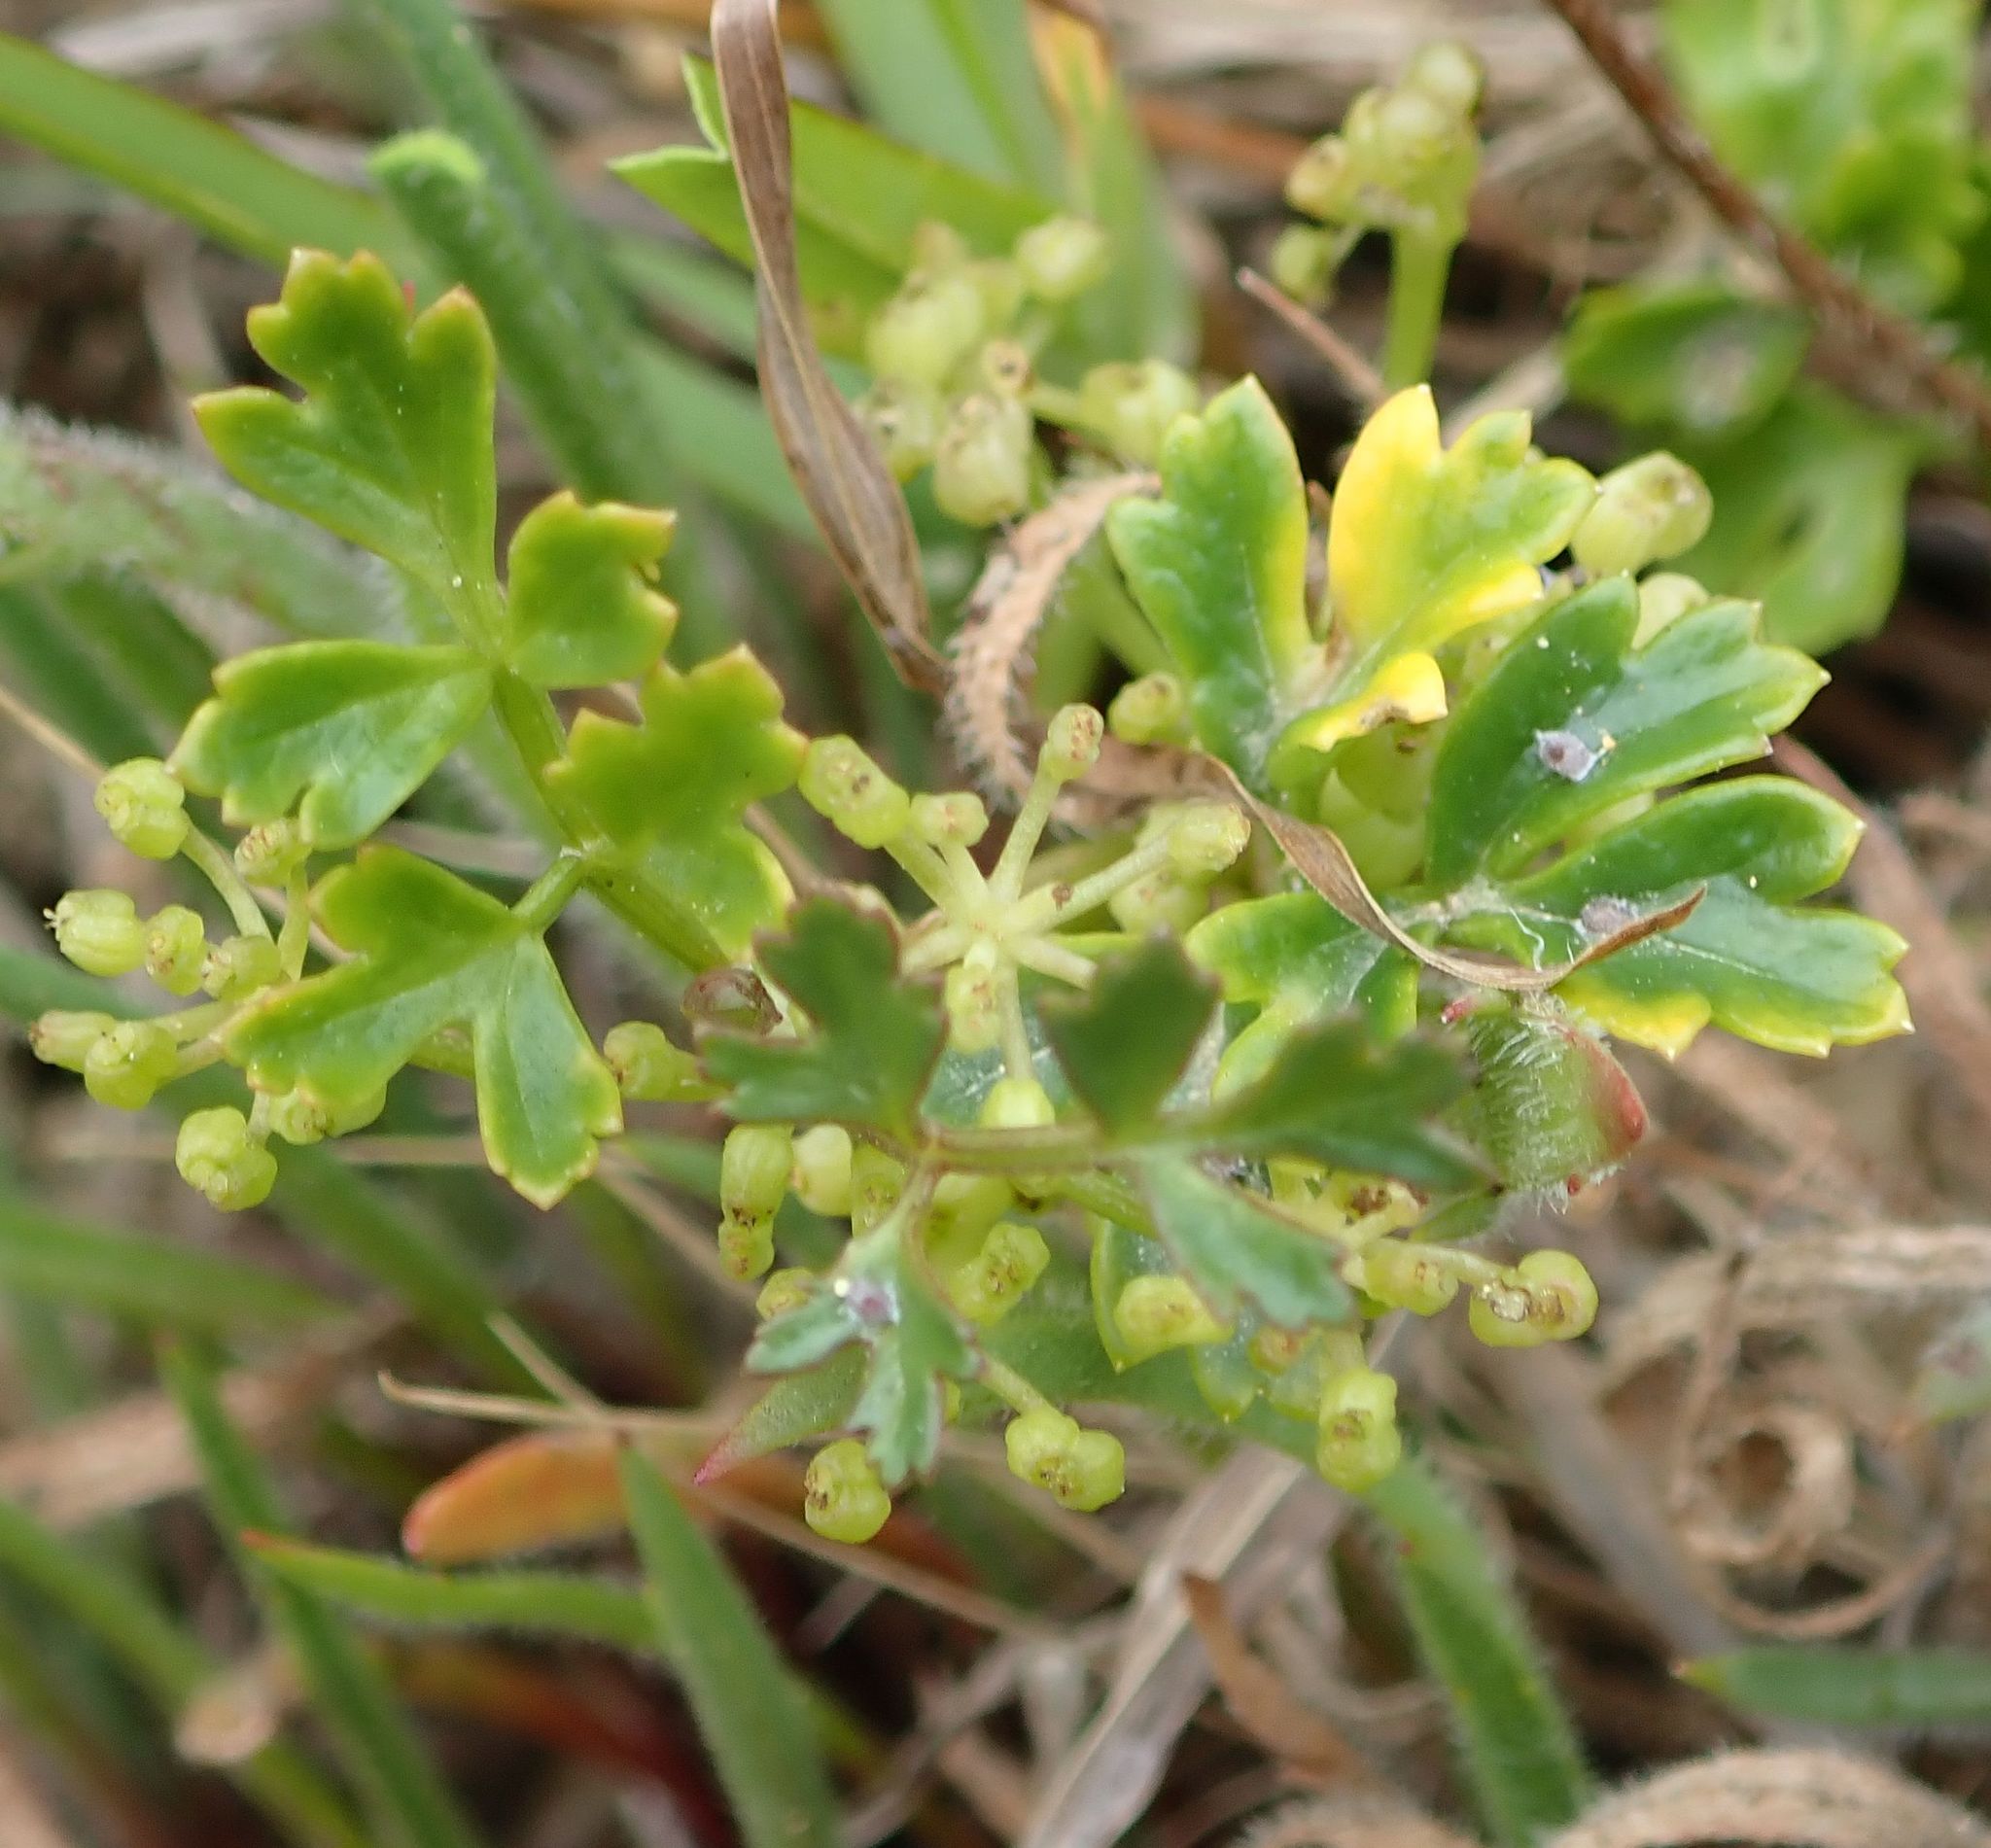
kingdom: Plantae
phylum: Tracheophyta
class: Magnoliopsida
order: Apiales
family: Apiaceae
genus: Apium
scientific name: Apium prostratum
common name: Prostrate marshwort
